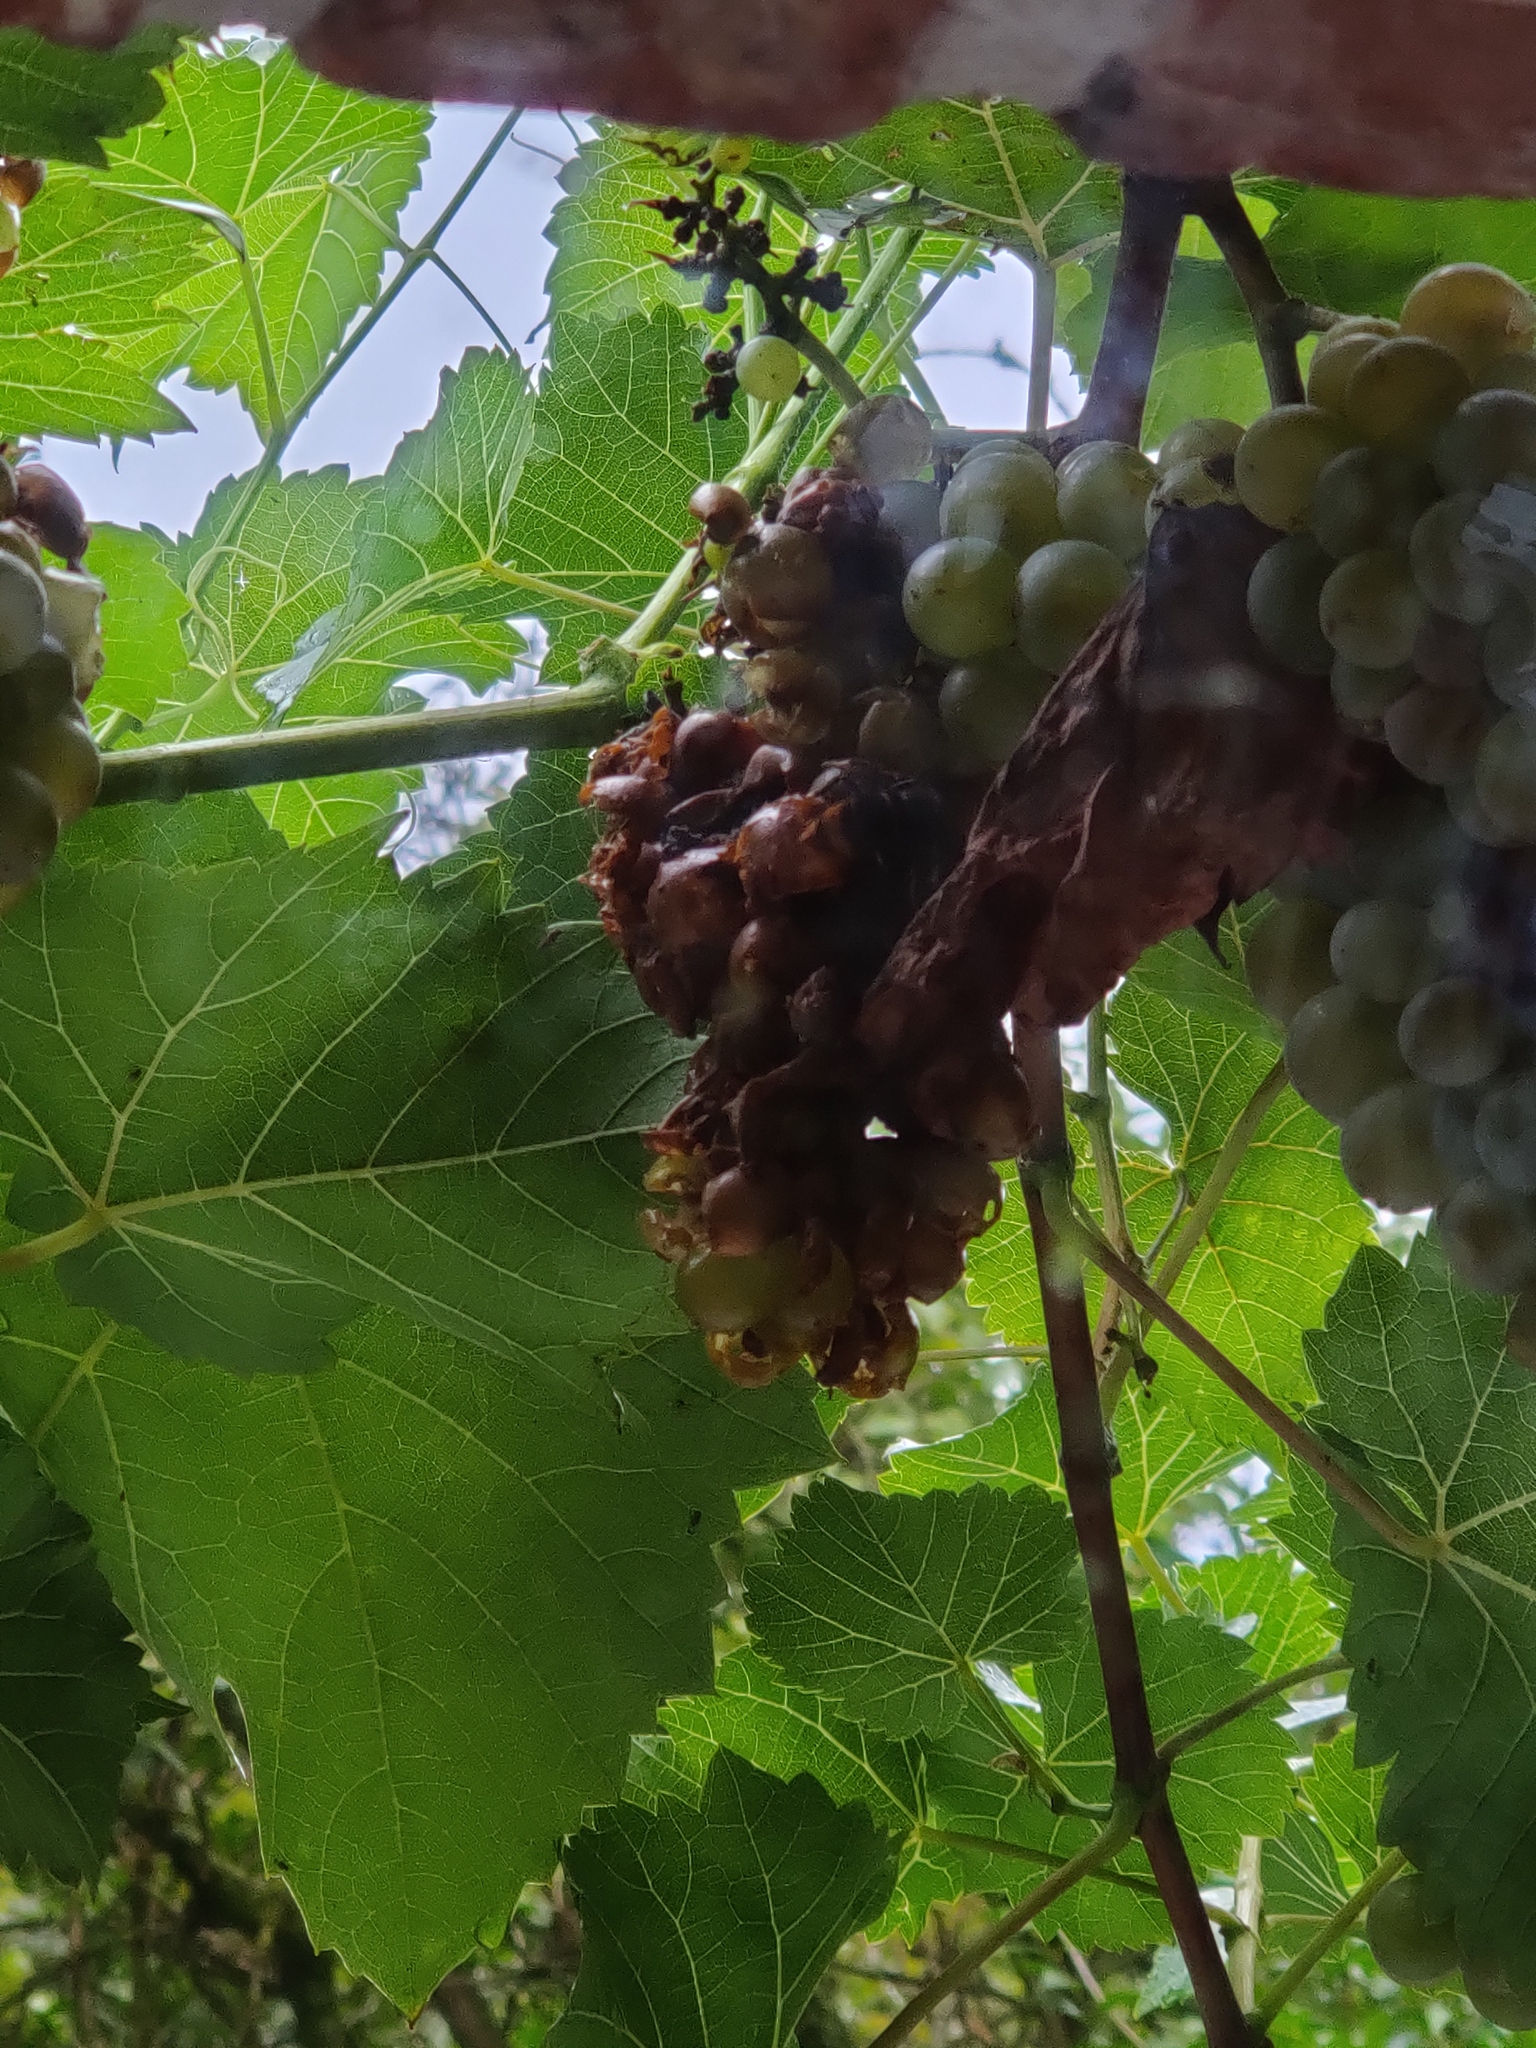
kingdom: Animalia
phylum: Arthropoda
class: Insecta
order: Hymenoptera
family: Vespidae
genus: Vespa
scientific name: Vespa velutina
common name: Asian hornet
